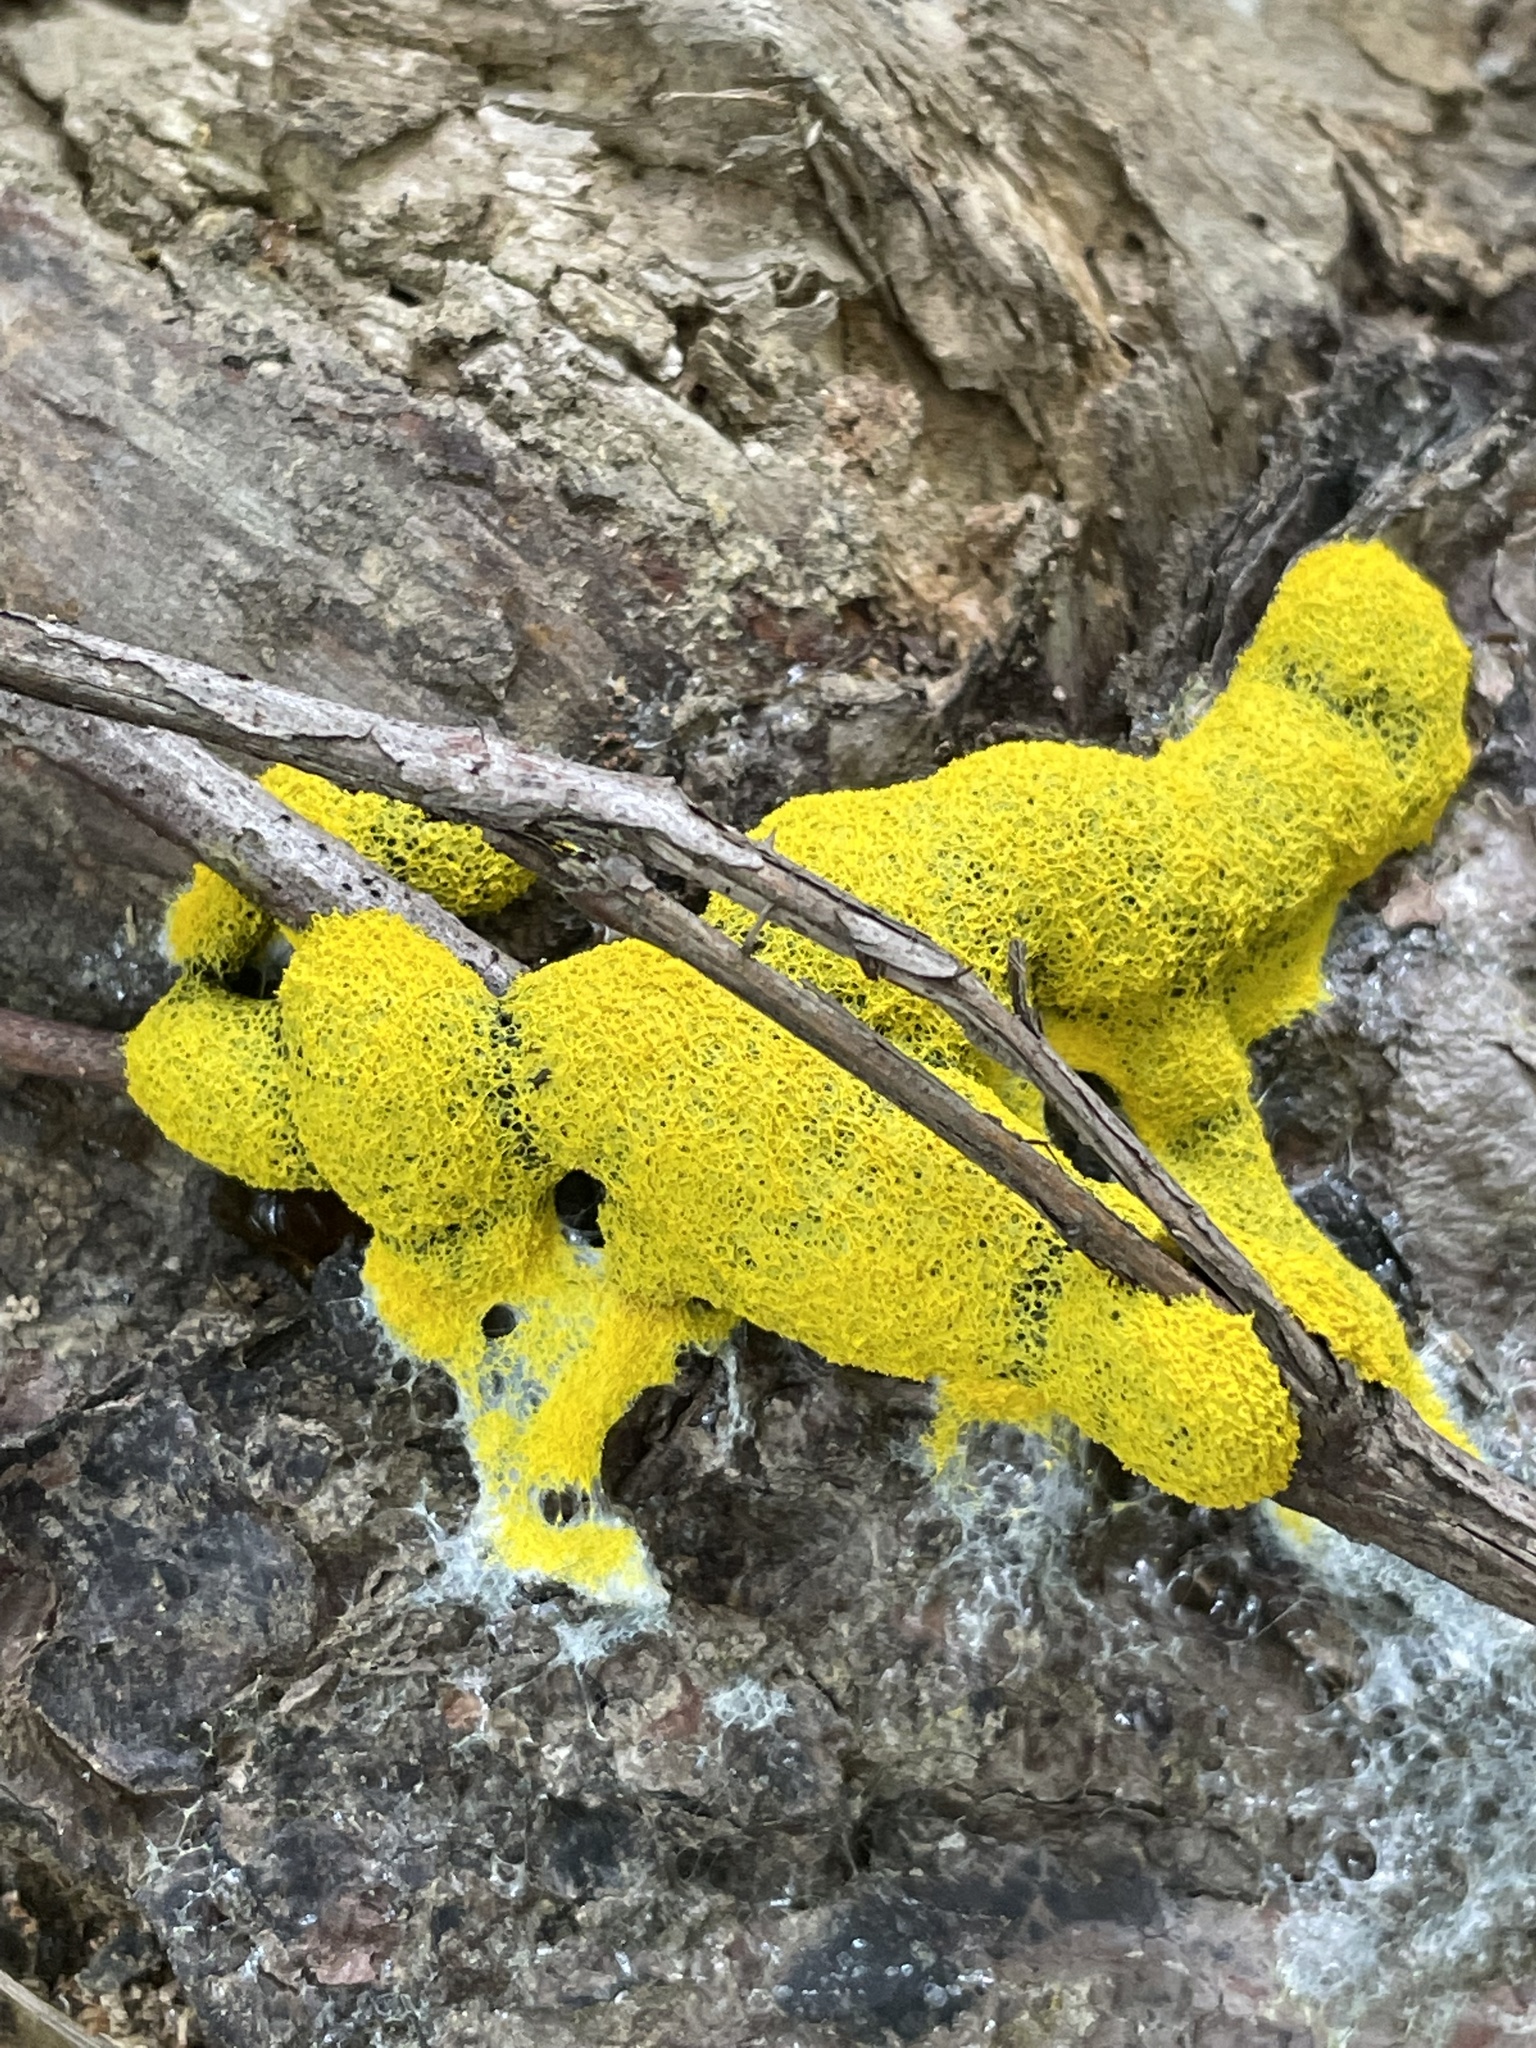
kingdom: Protozoa
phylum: Mycetozoa
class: Myxomycetes
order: Physarales
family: Physaraceae
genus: Fuligo
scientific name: Fuligo septica
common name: Dog vomit slime mold
